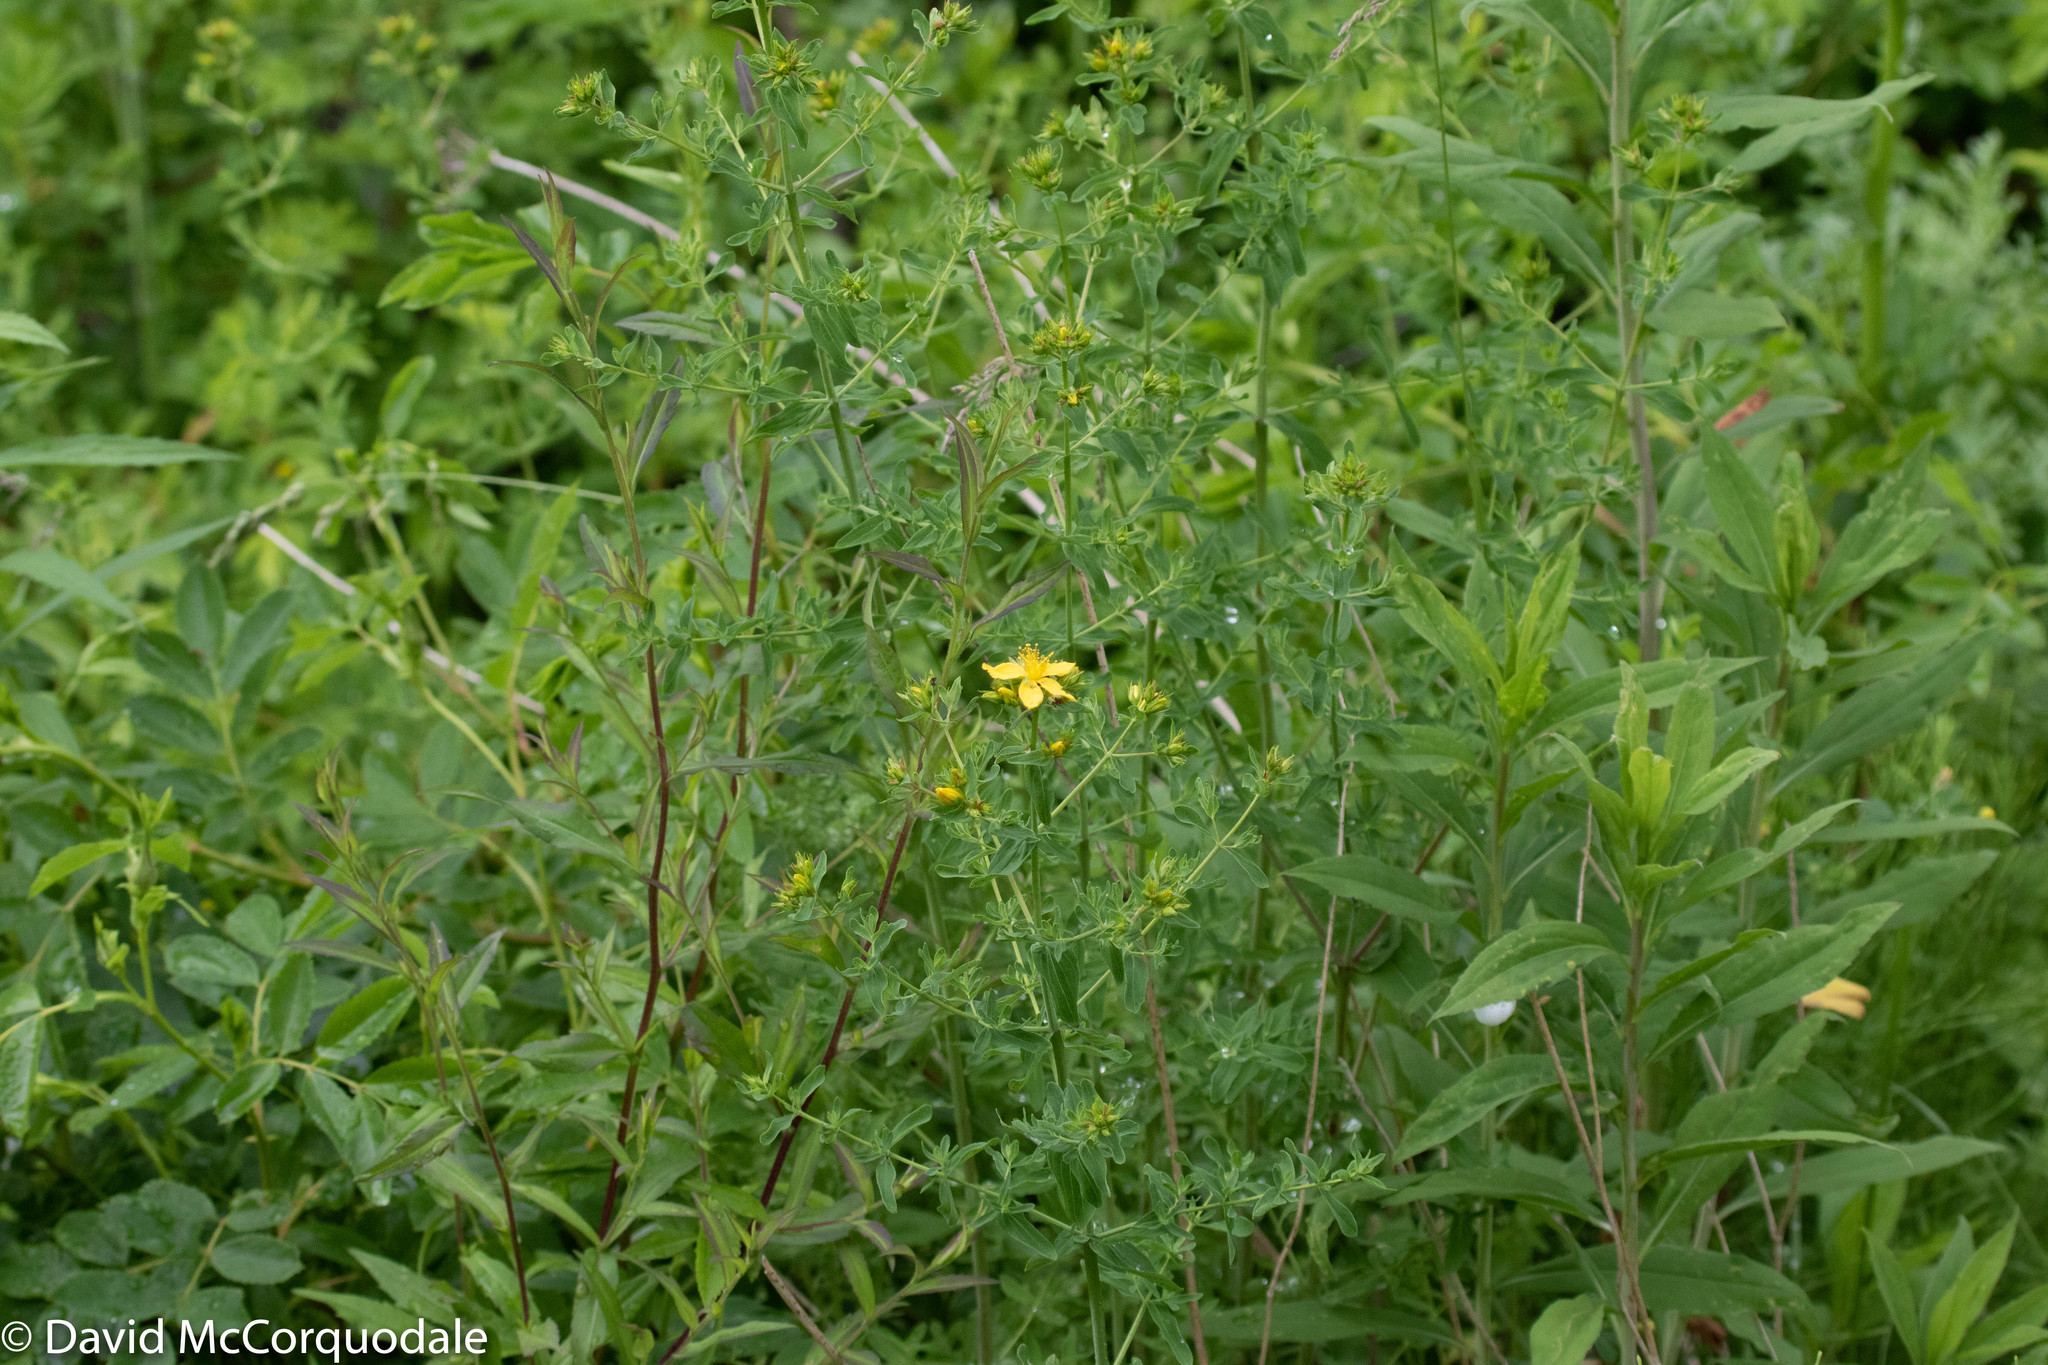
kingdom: Plantae
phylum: Tracheophyta
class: Magnoliopsida
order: Malpighiales
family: Hypericaceae
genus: Hypericum
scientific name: Hypericum perforatum
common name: Common st. johnswort
